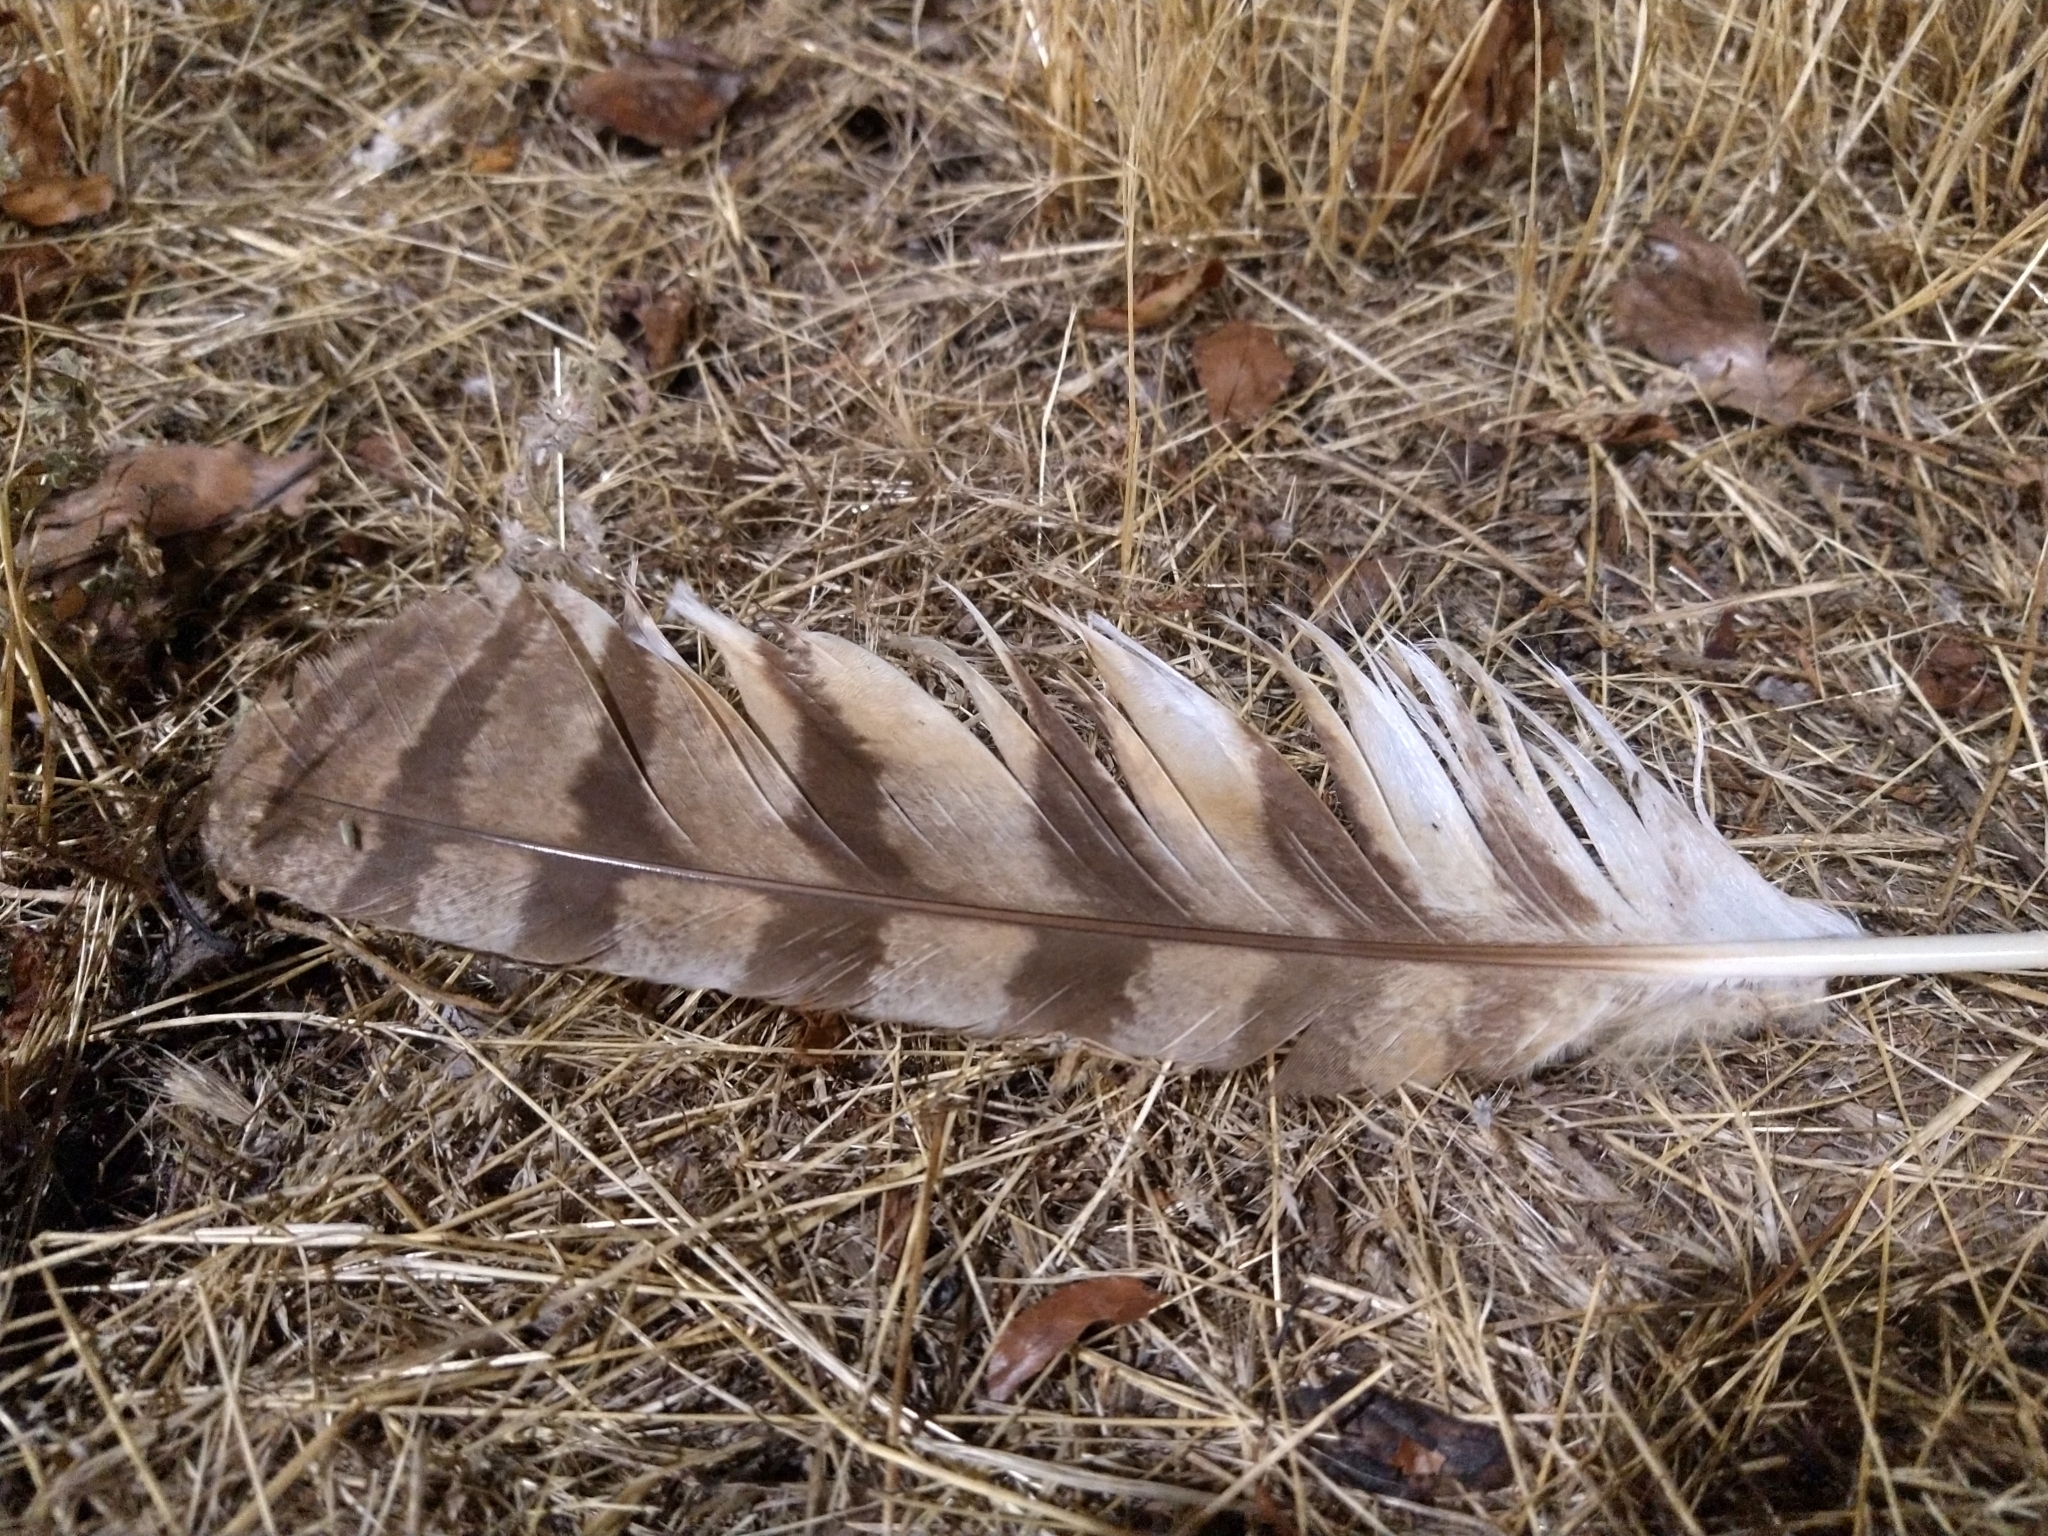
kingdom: Animalia
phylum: Chordata
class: Aves
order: Strigiformes
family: Strigidae
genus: Bubo
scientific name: Bubo virginianus
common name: Great horned owl
